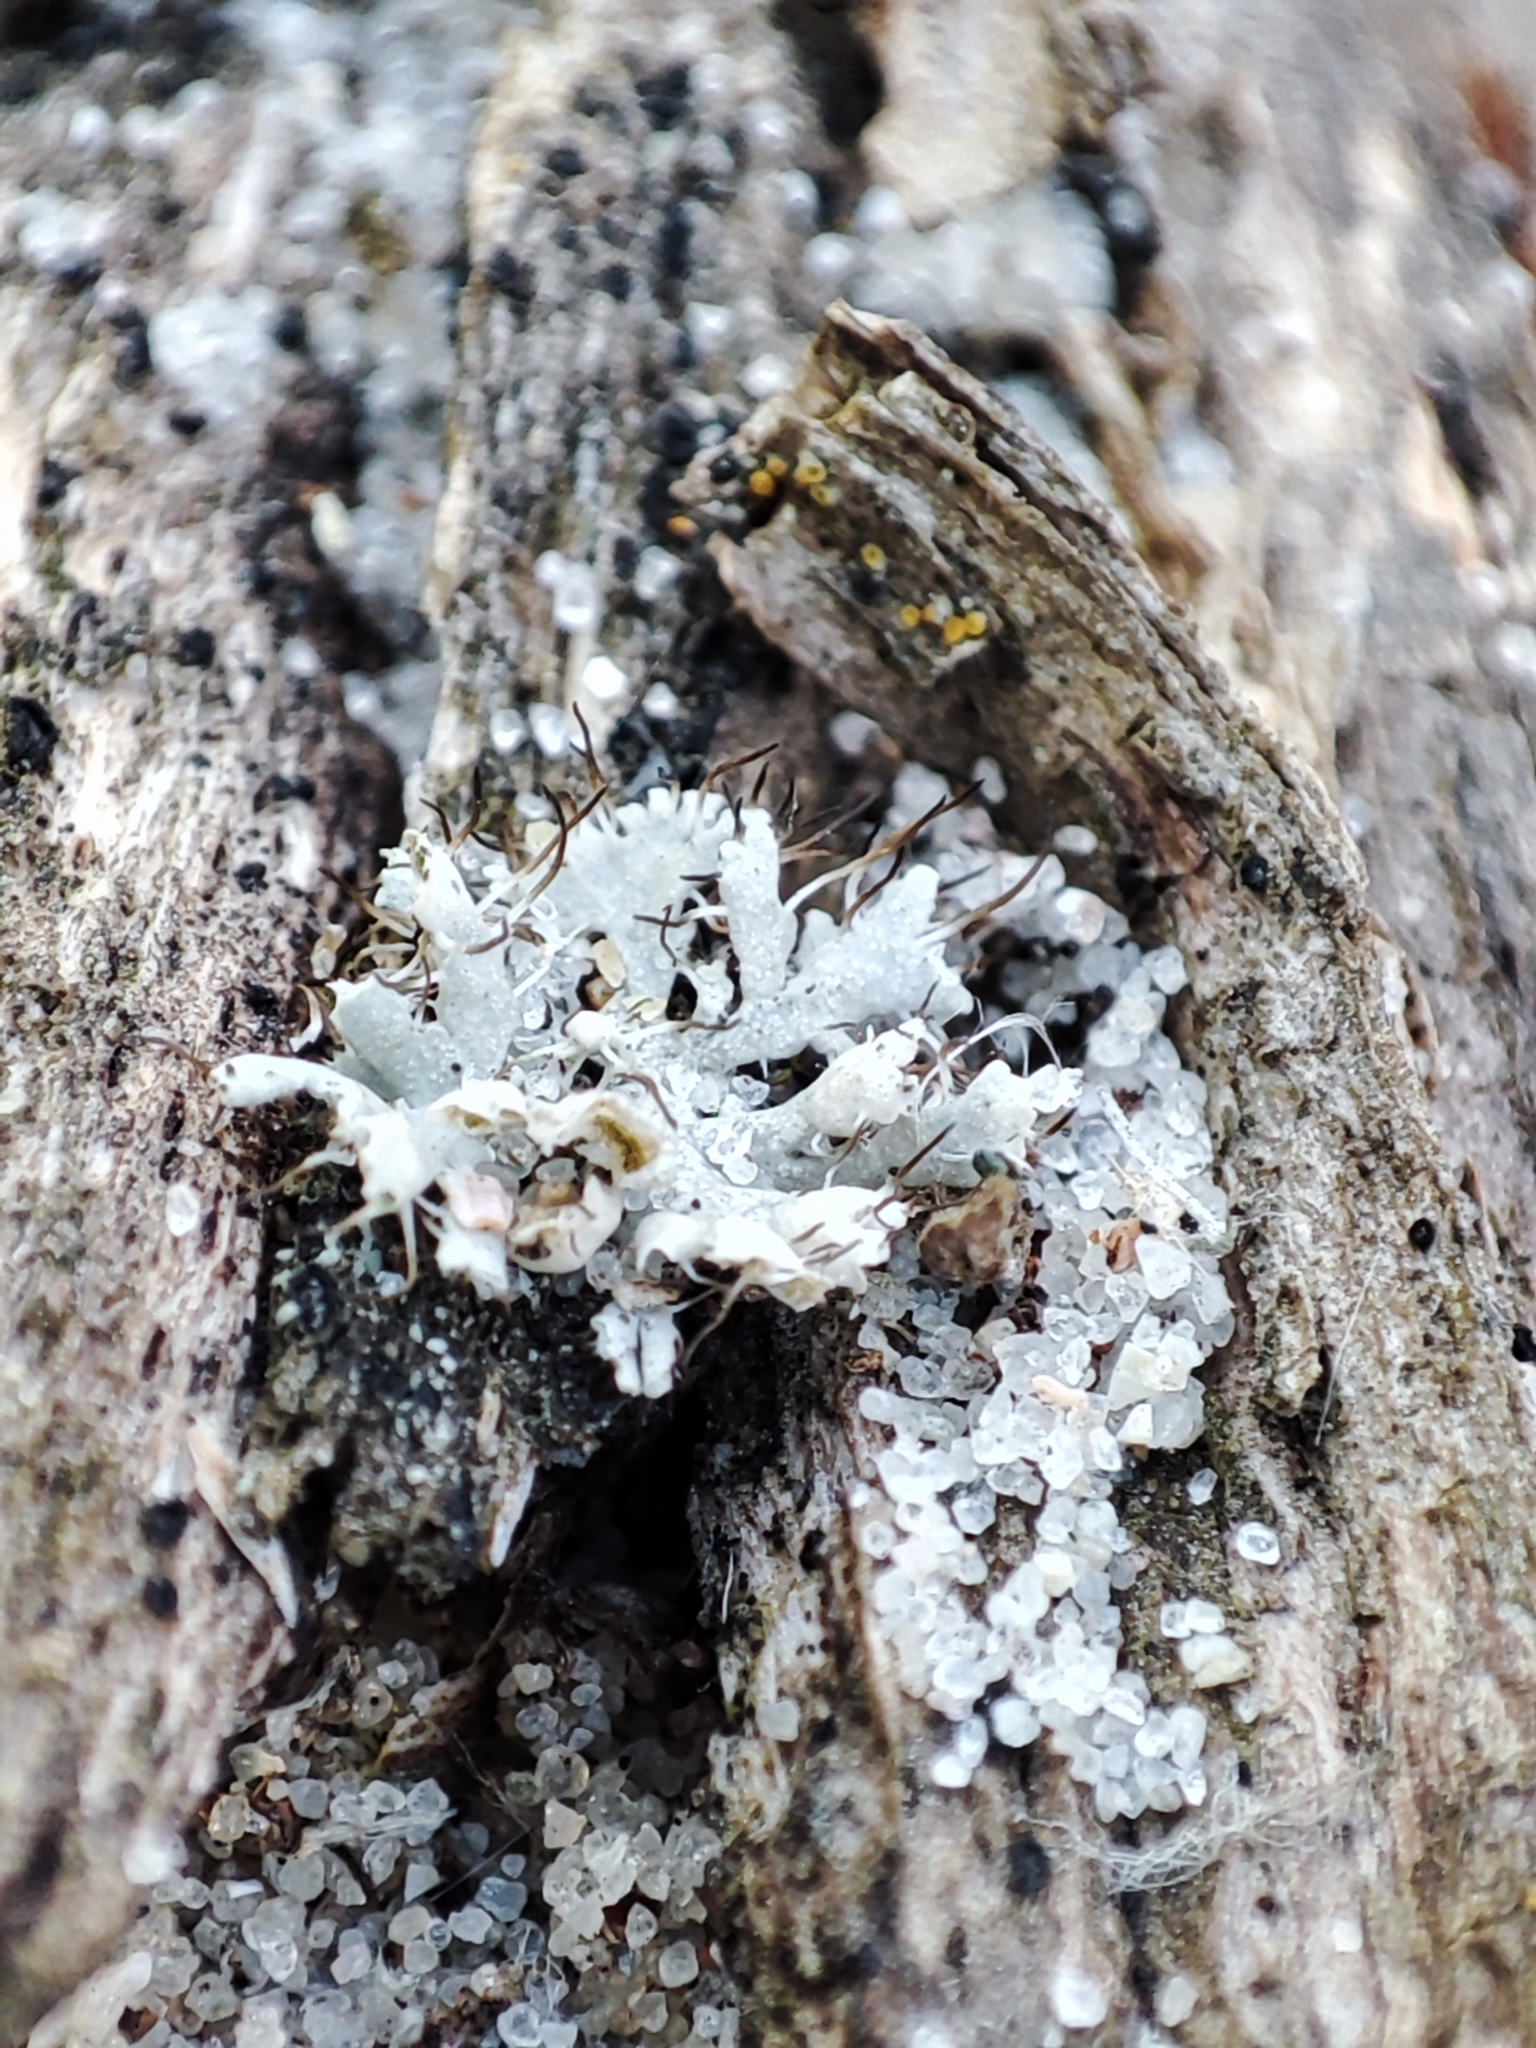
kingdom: Fungi
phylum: Ascomycota
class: Lecanoromycetes
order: Caliciales
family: Physciaceae
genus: Physcia
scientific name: Physcia adscendens
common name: Hooded rosette lichen
